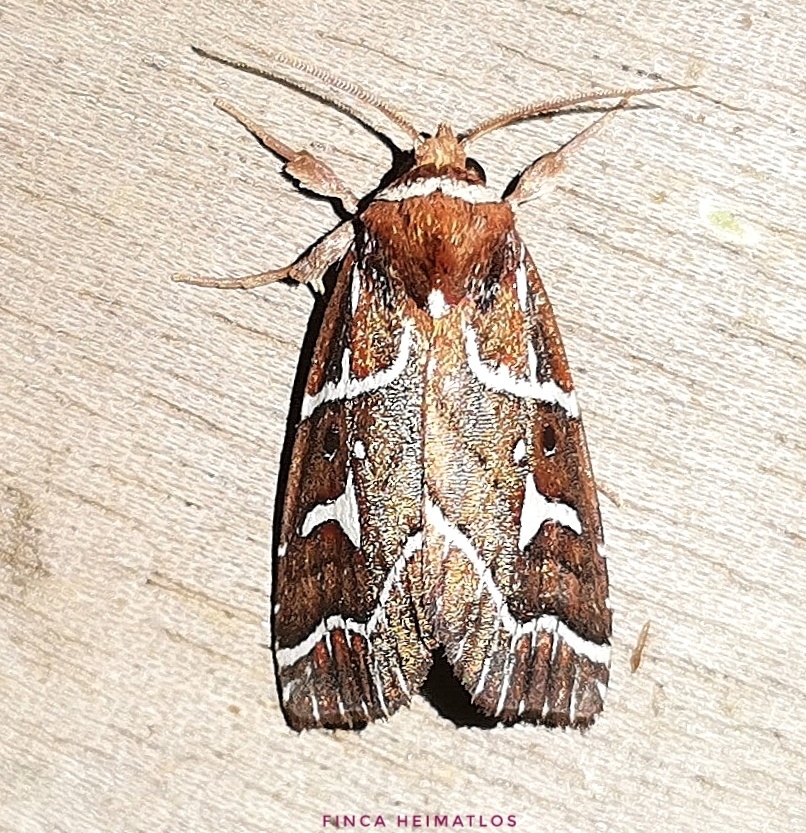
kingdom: Animalia
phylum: Arthropoda
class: Insecta
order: Lepidoptera
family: Noctuidae
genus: Selambina
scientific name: Selambina trajiciens
